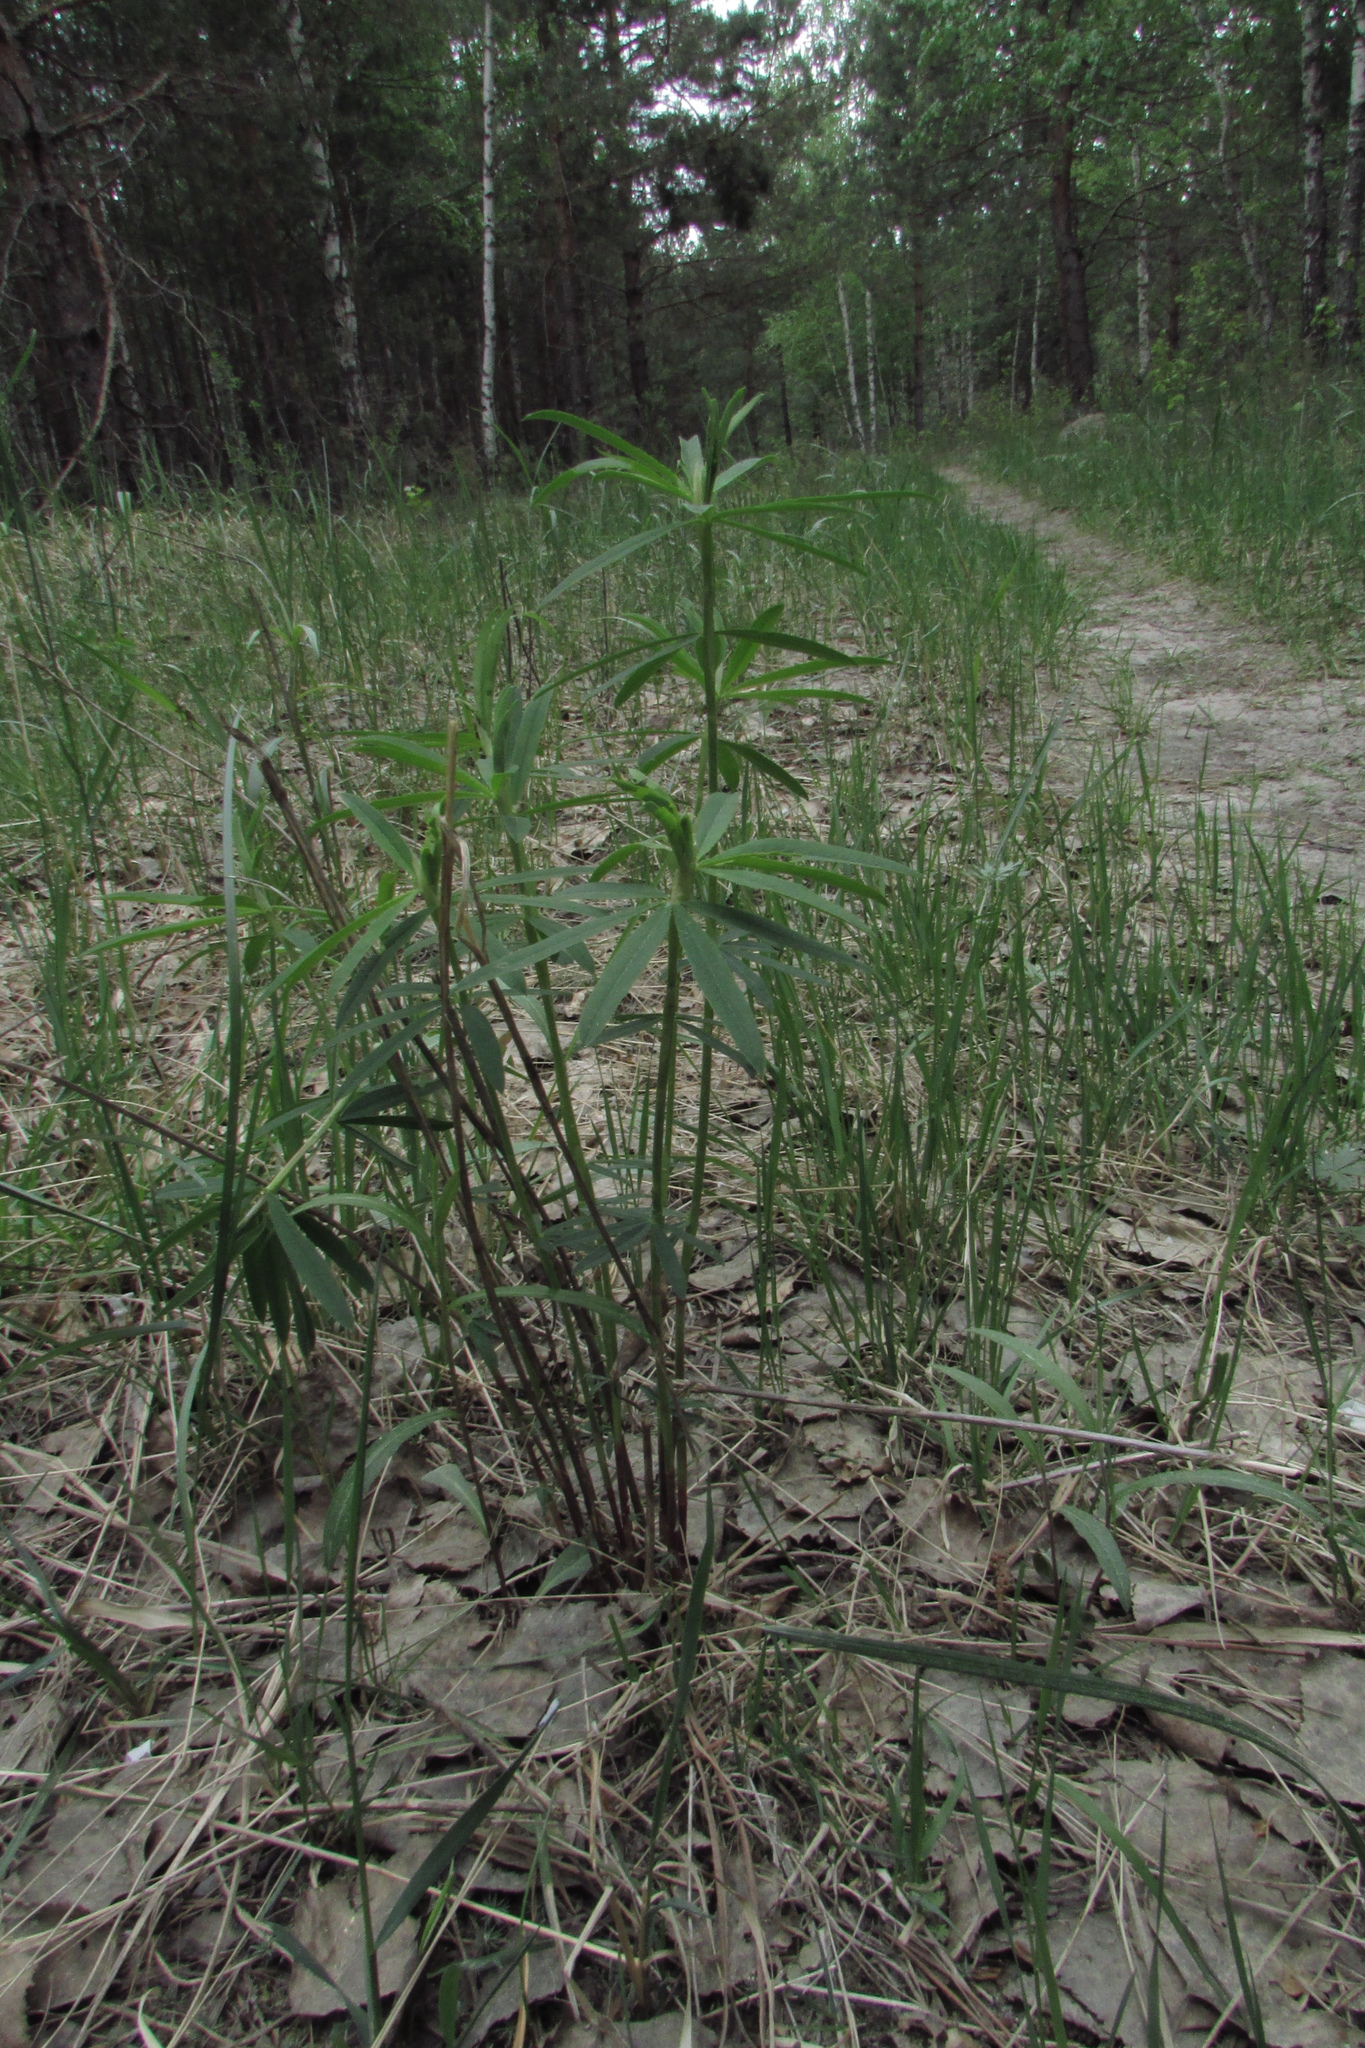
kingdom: Plantae
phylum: Tracheophyta
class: Magnoliopsida
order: Fabales
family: Fabaceae
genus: Trifolium
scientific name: Trifolium lupinaster
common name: Lupine clover
